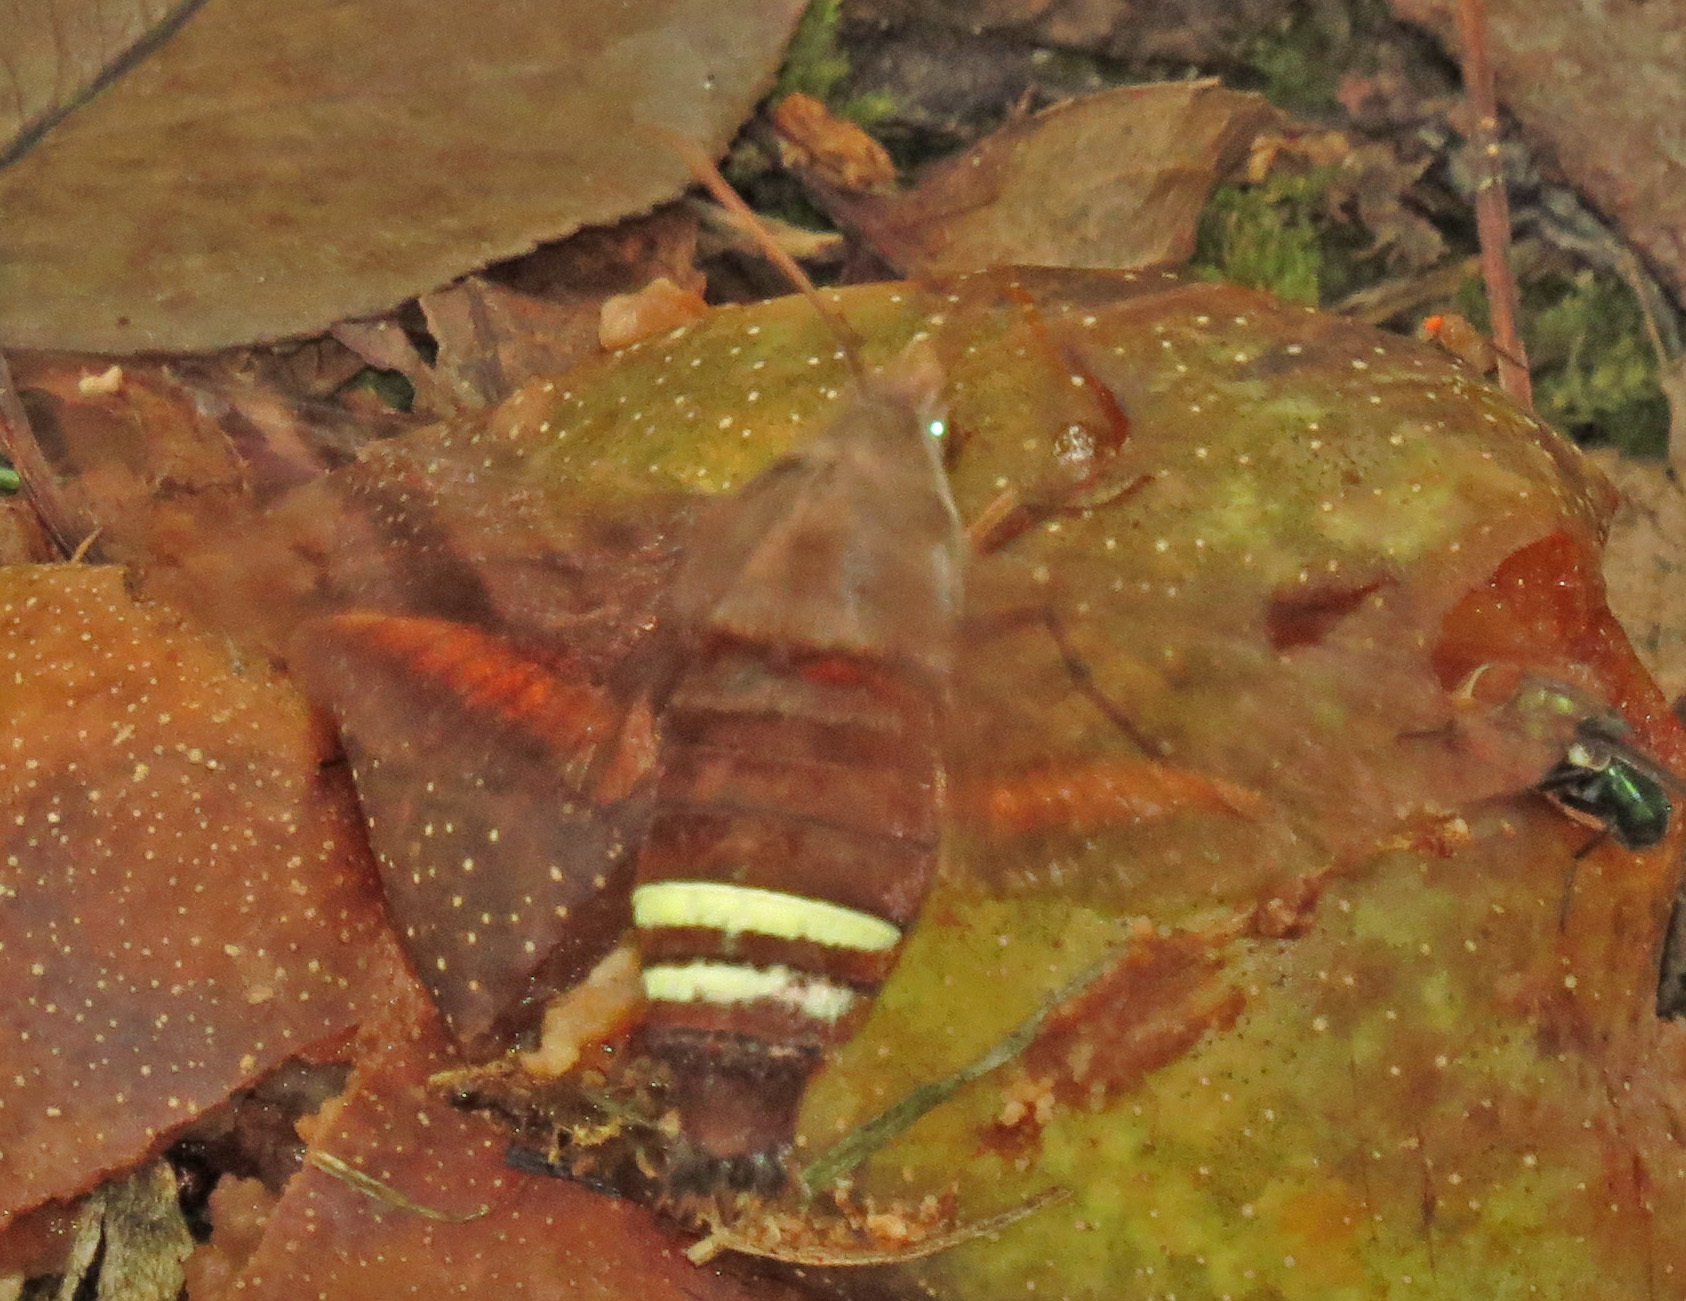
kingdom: Animalia
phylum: Arthropoda
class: Insecta
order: Lepidoptera
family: Sphingidae
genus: Amphion
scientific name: Amphion floridensis
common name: Nessus sphinx
